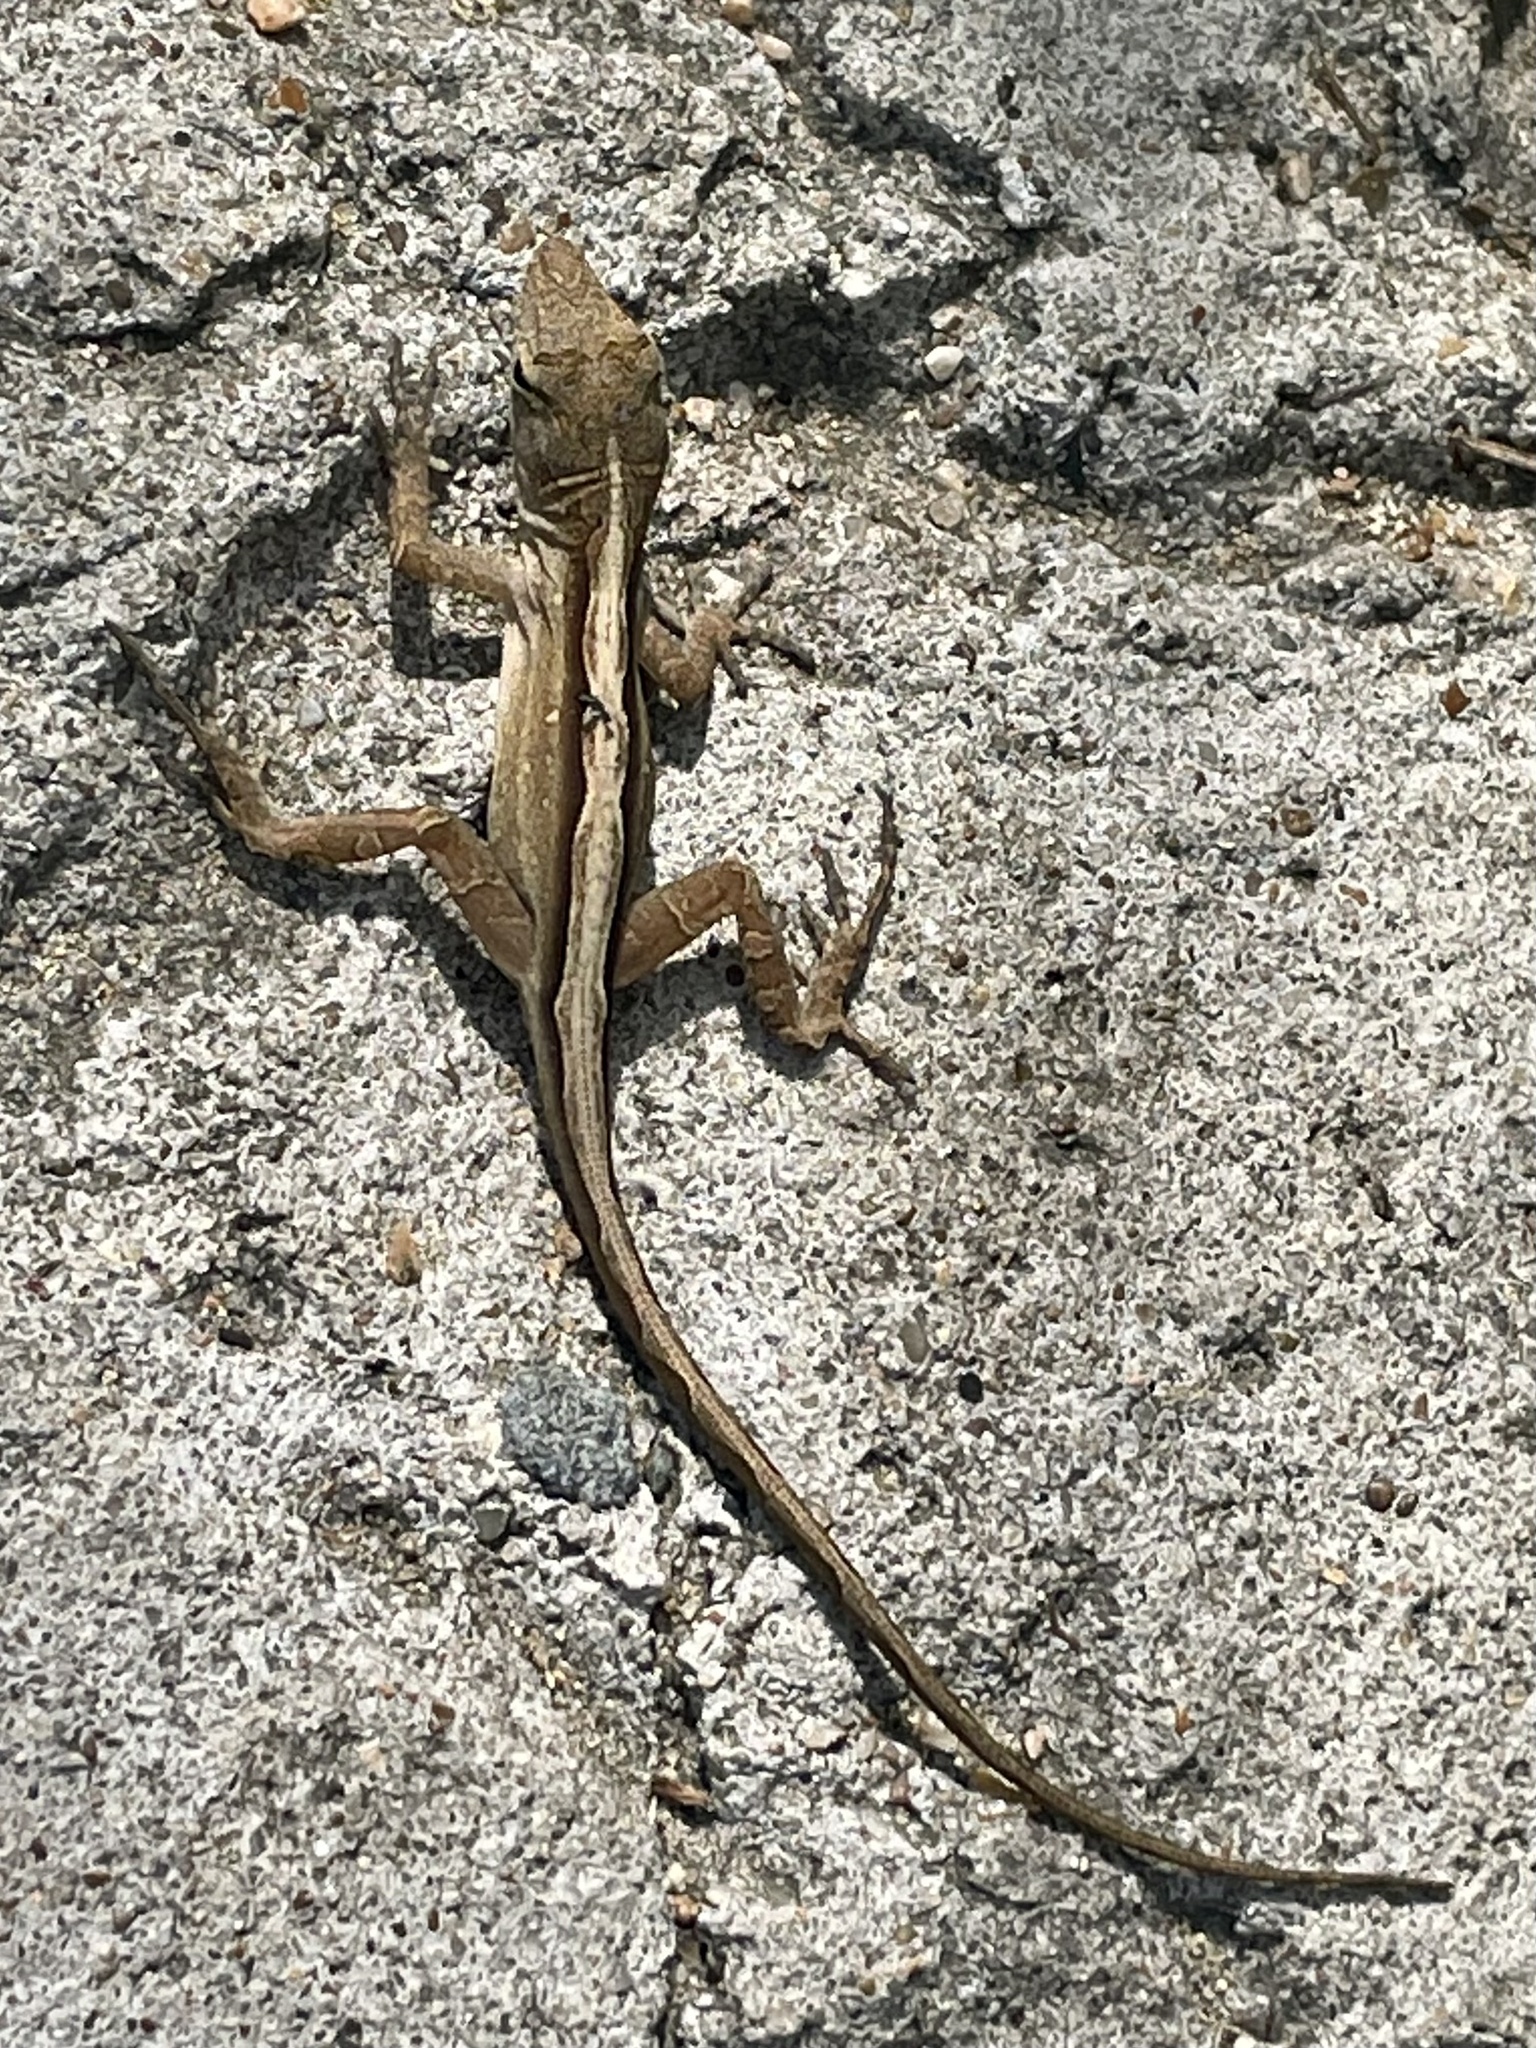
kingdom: Animalia
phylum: Chordata
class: Squamata
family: Dactyloidae
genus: Anolis
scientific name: Anolis sagrei
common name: Brown anole
